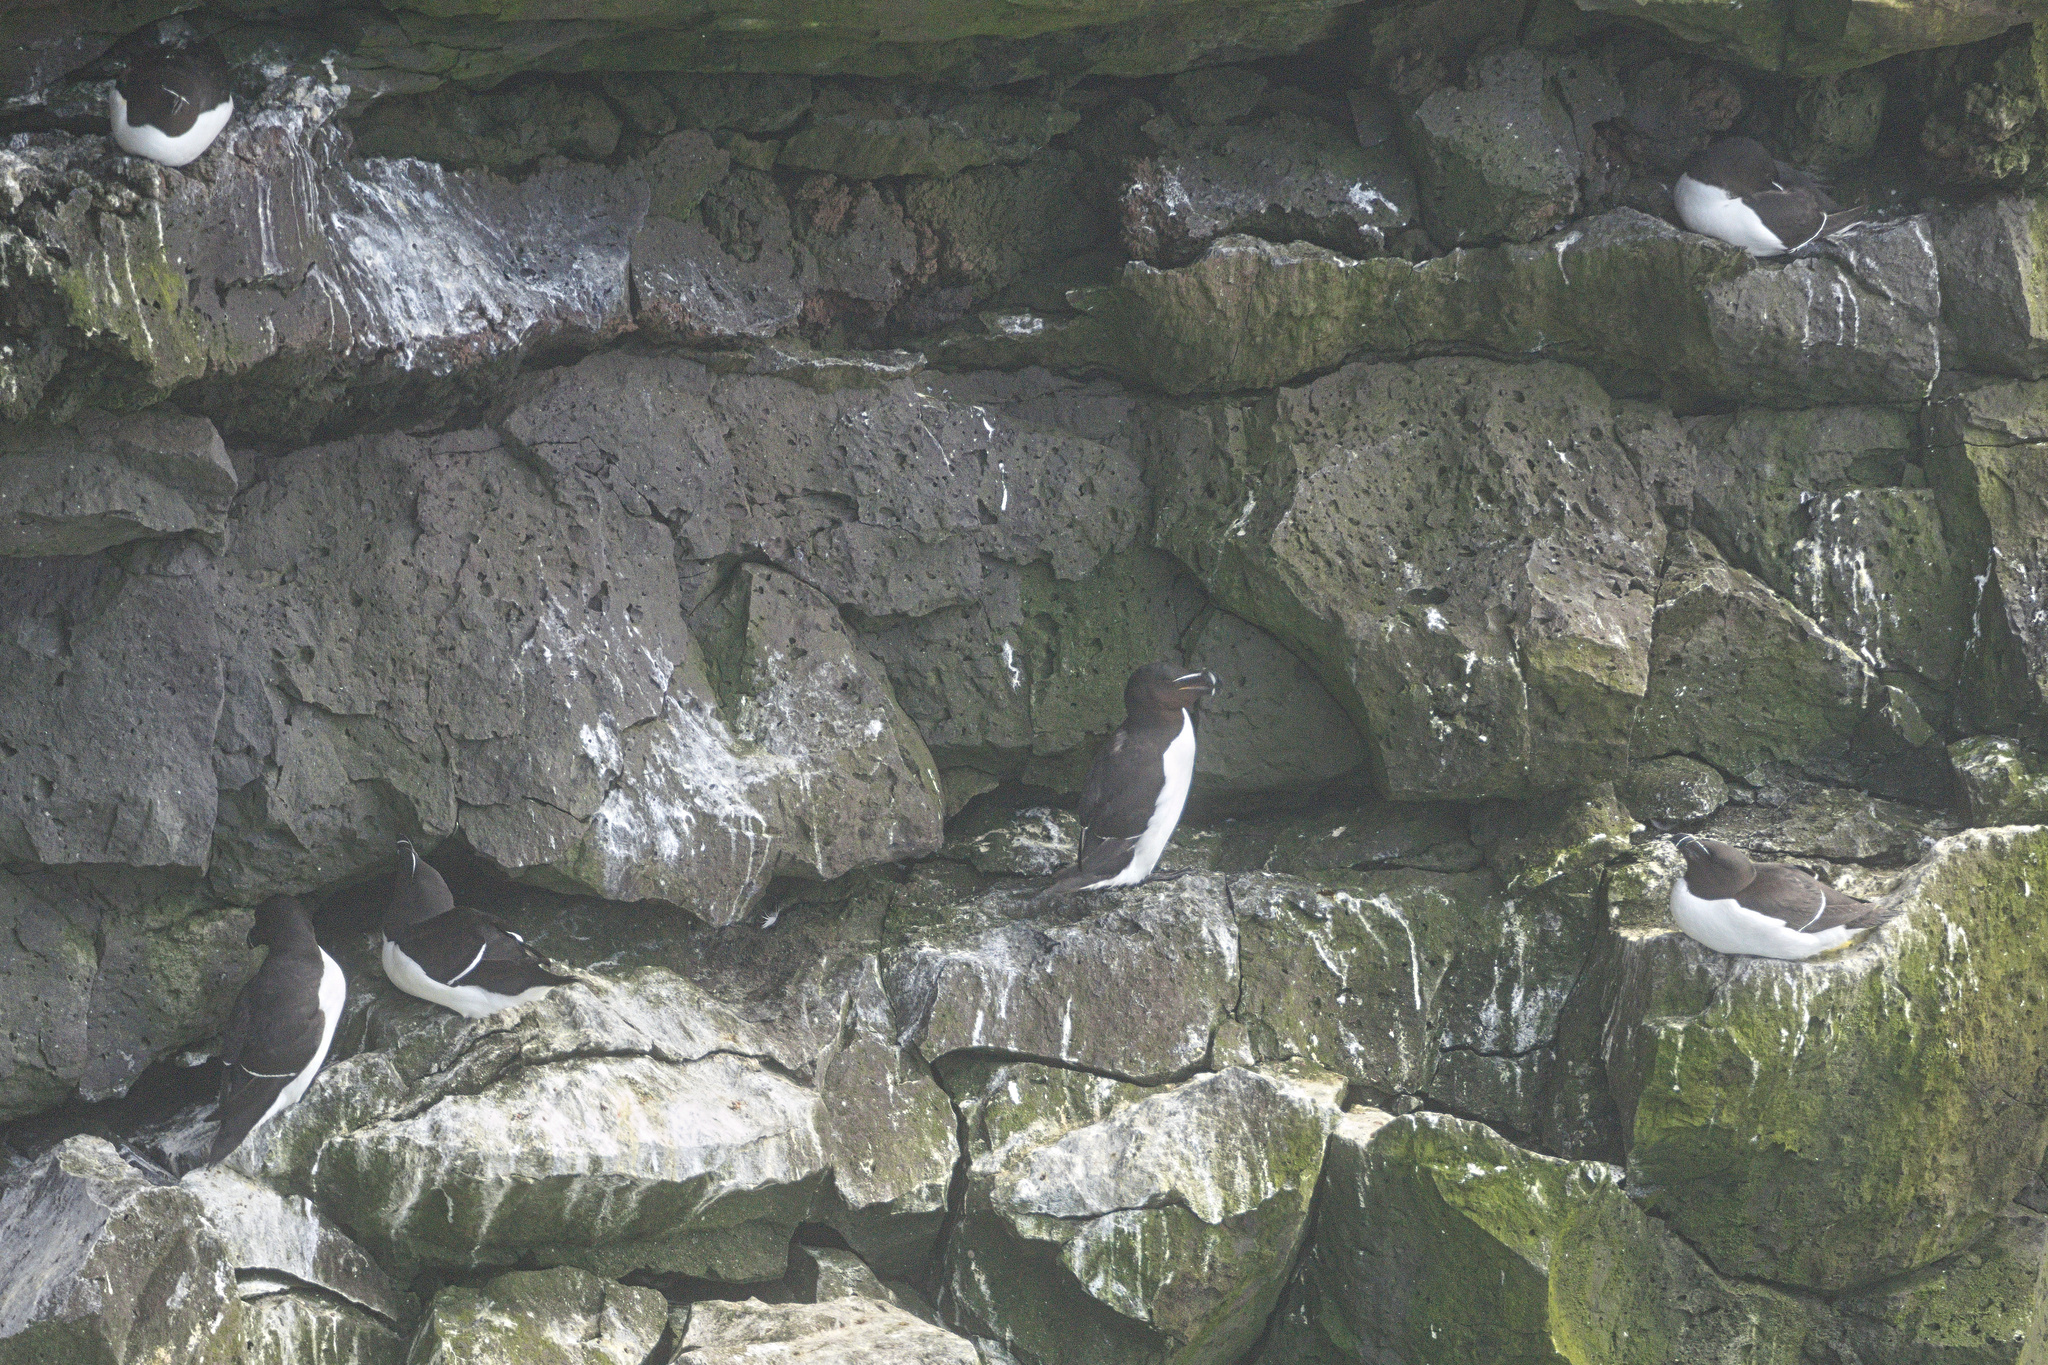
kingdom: Animalia
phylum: Chordata
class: Aves
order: Charadriiformes
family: Alcidae
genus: Alca
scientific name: Alca torda
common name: Razorbill
